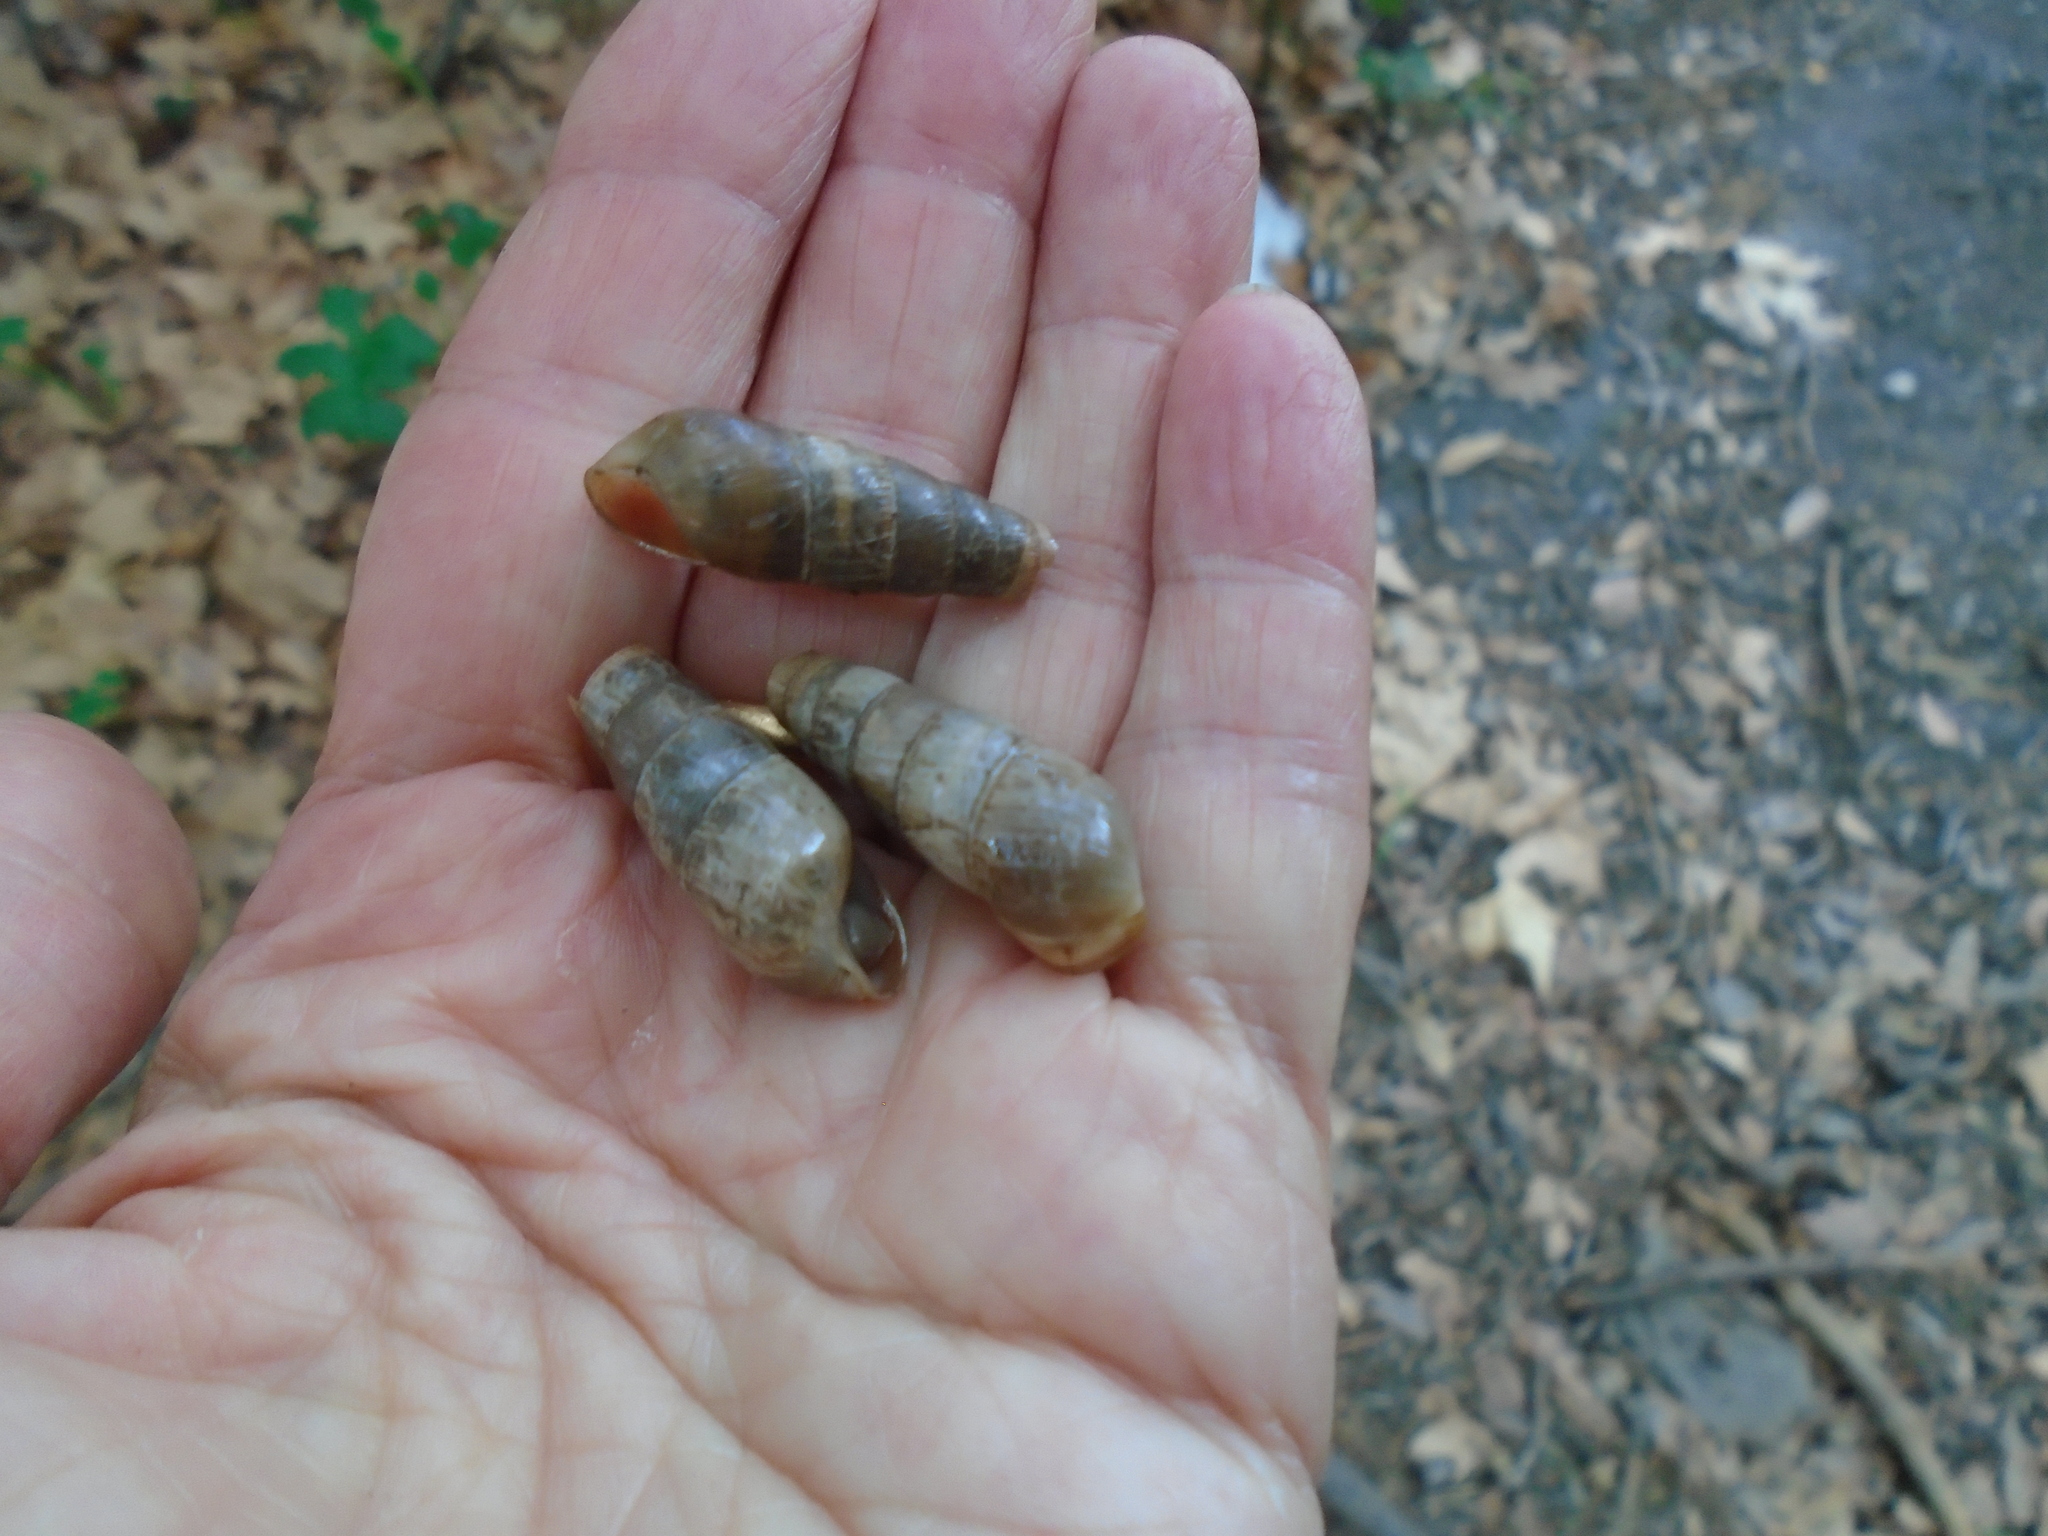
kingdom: Animalia
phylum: Mollusca
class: Gastropoda
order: Stylommatophora
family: Achatinidae
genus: Rumina
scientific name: Rumina decollata
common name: Decollate snail
